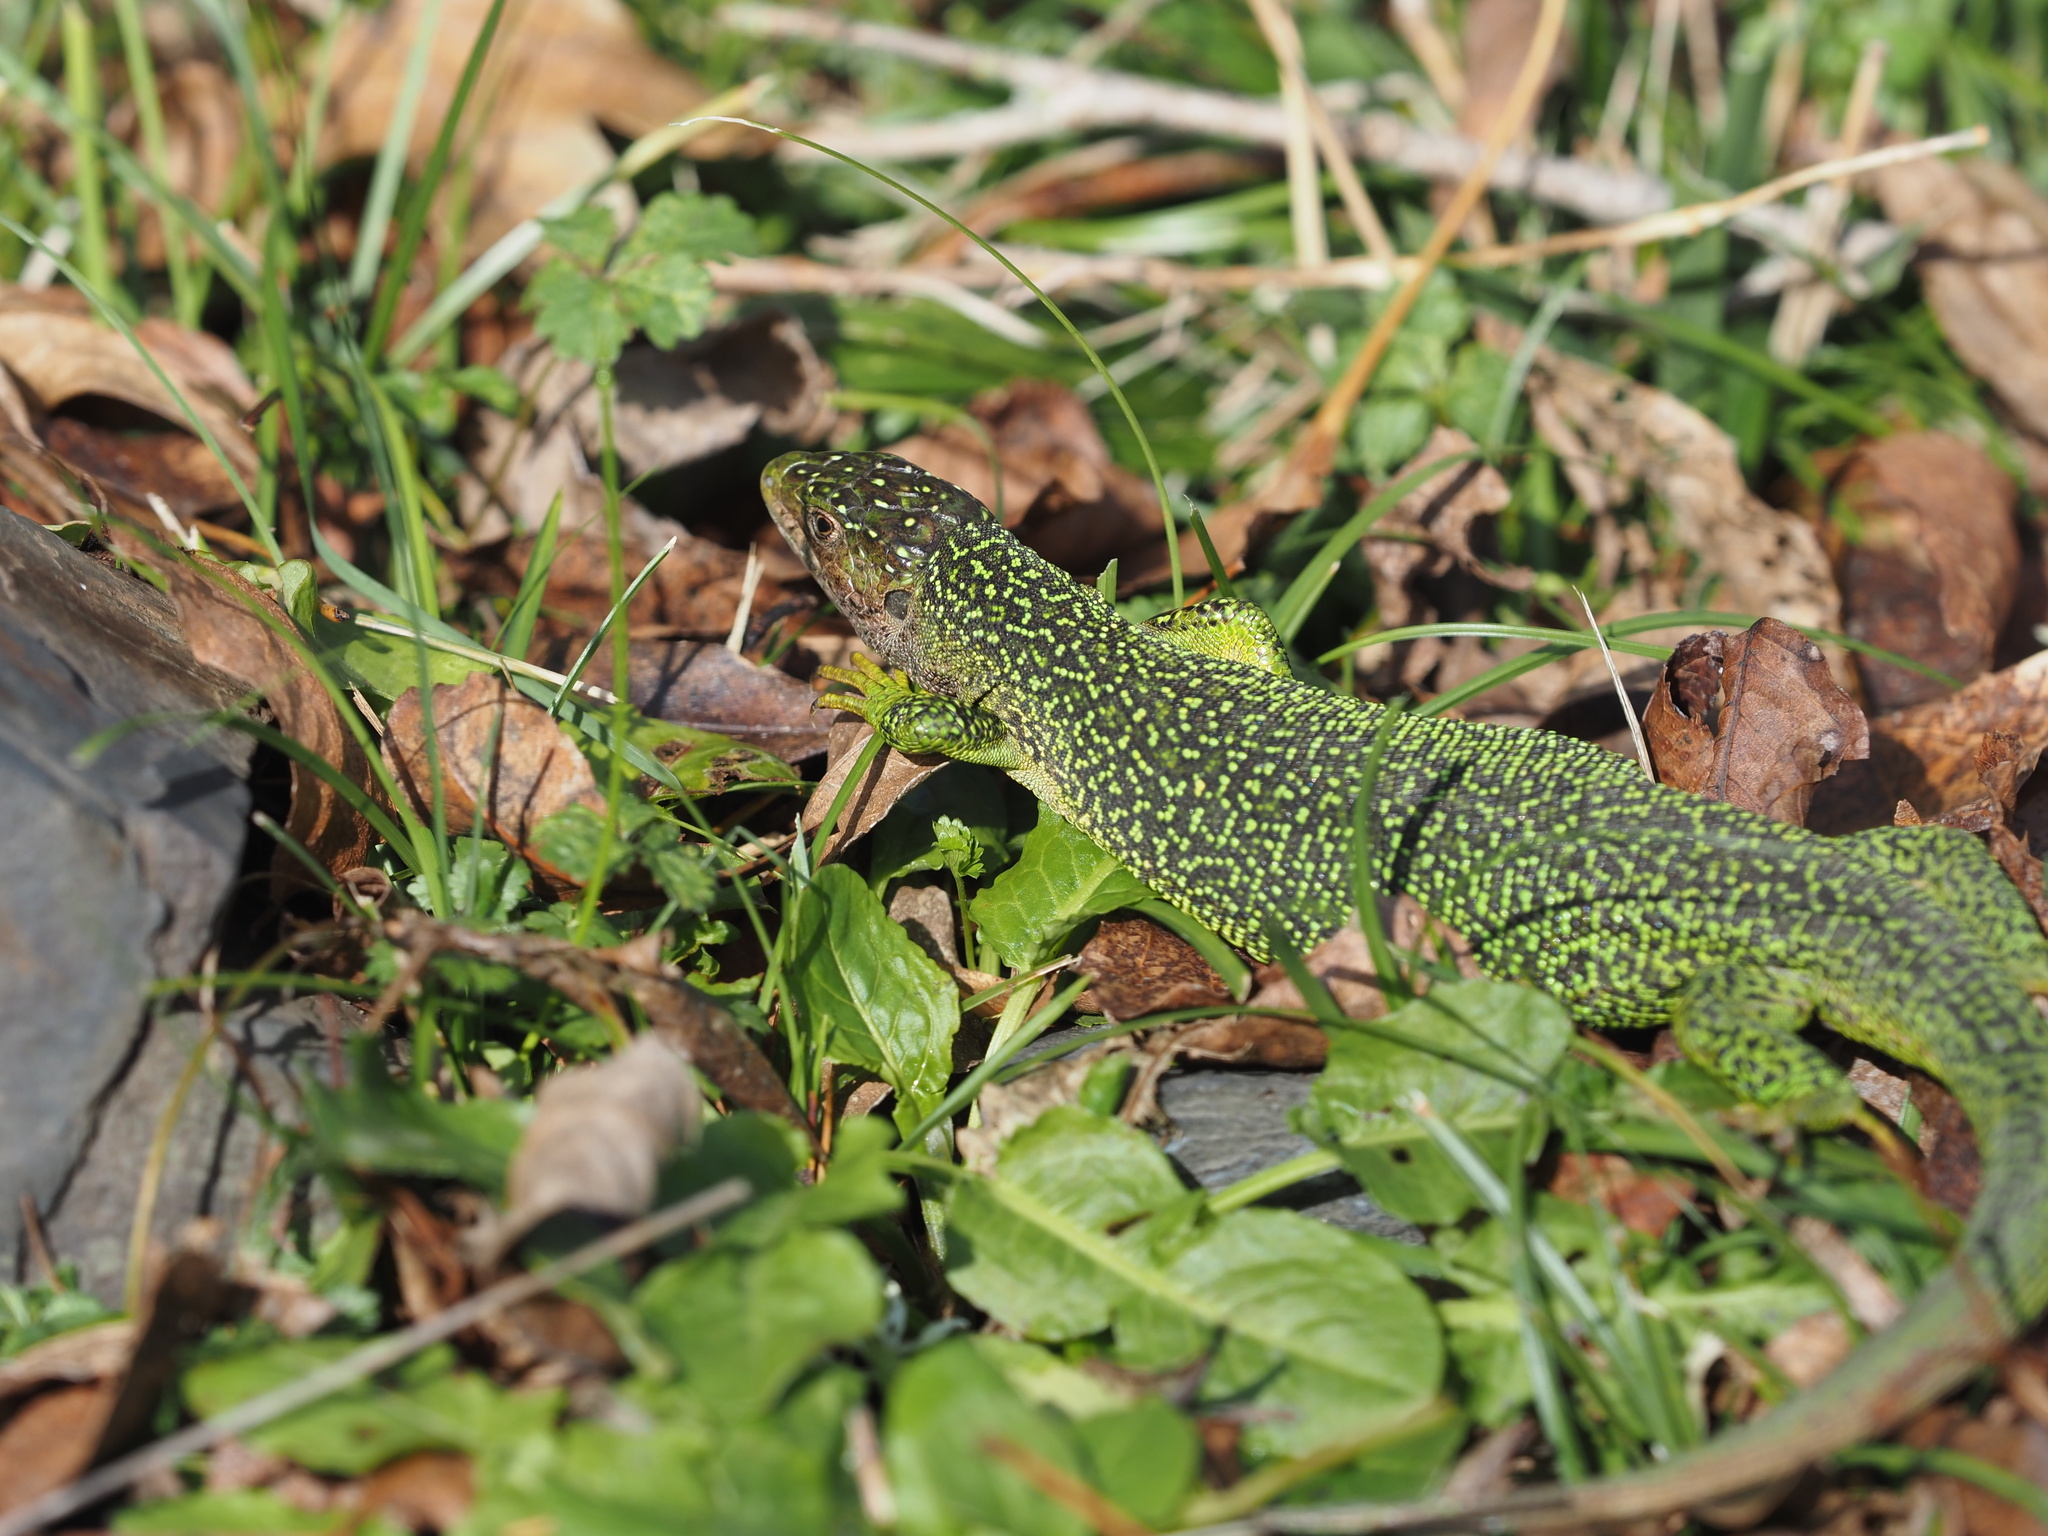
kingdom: Animalia
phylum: Chordata
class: Squamata
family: Lacertidae
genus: Lacerta
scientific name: Lacerta bilineata
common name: Western green lizard
